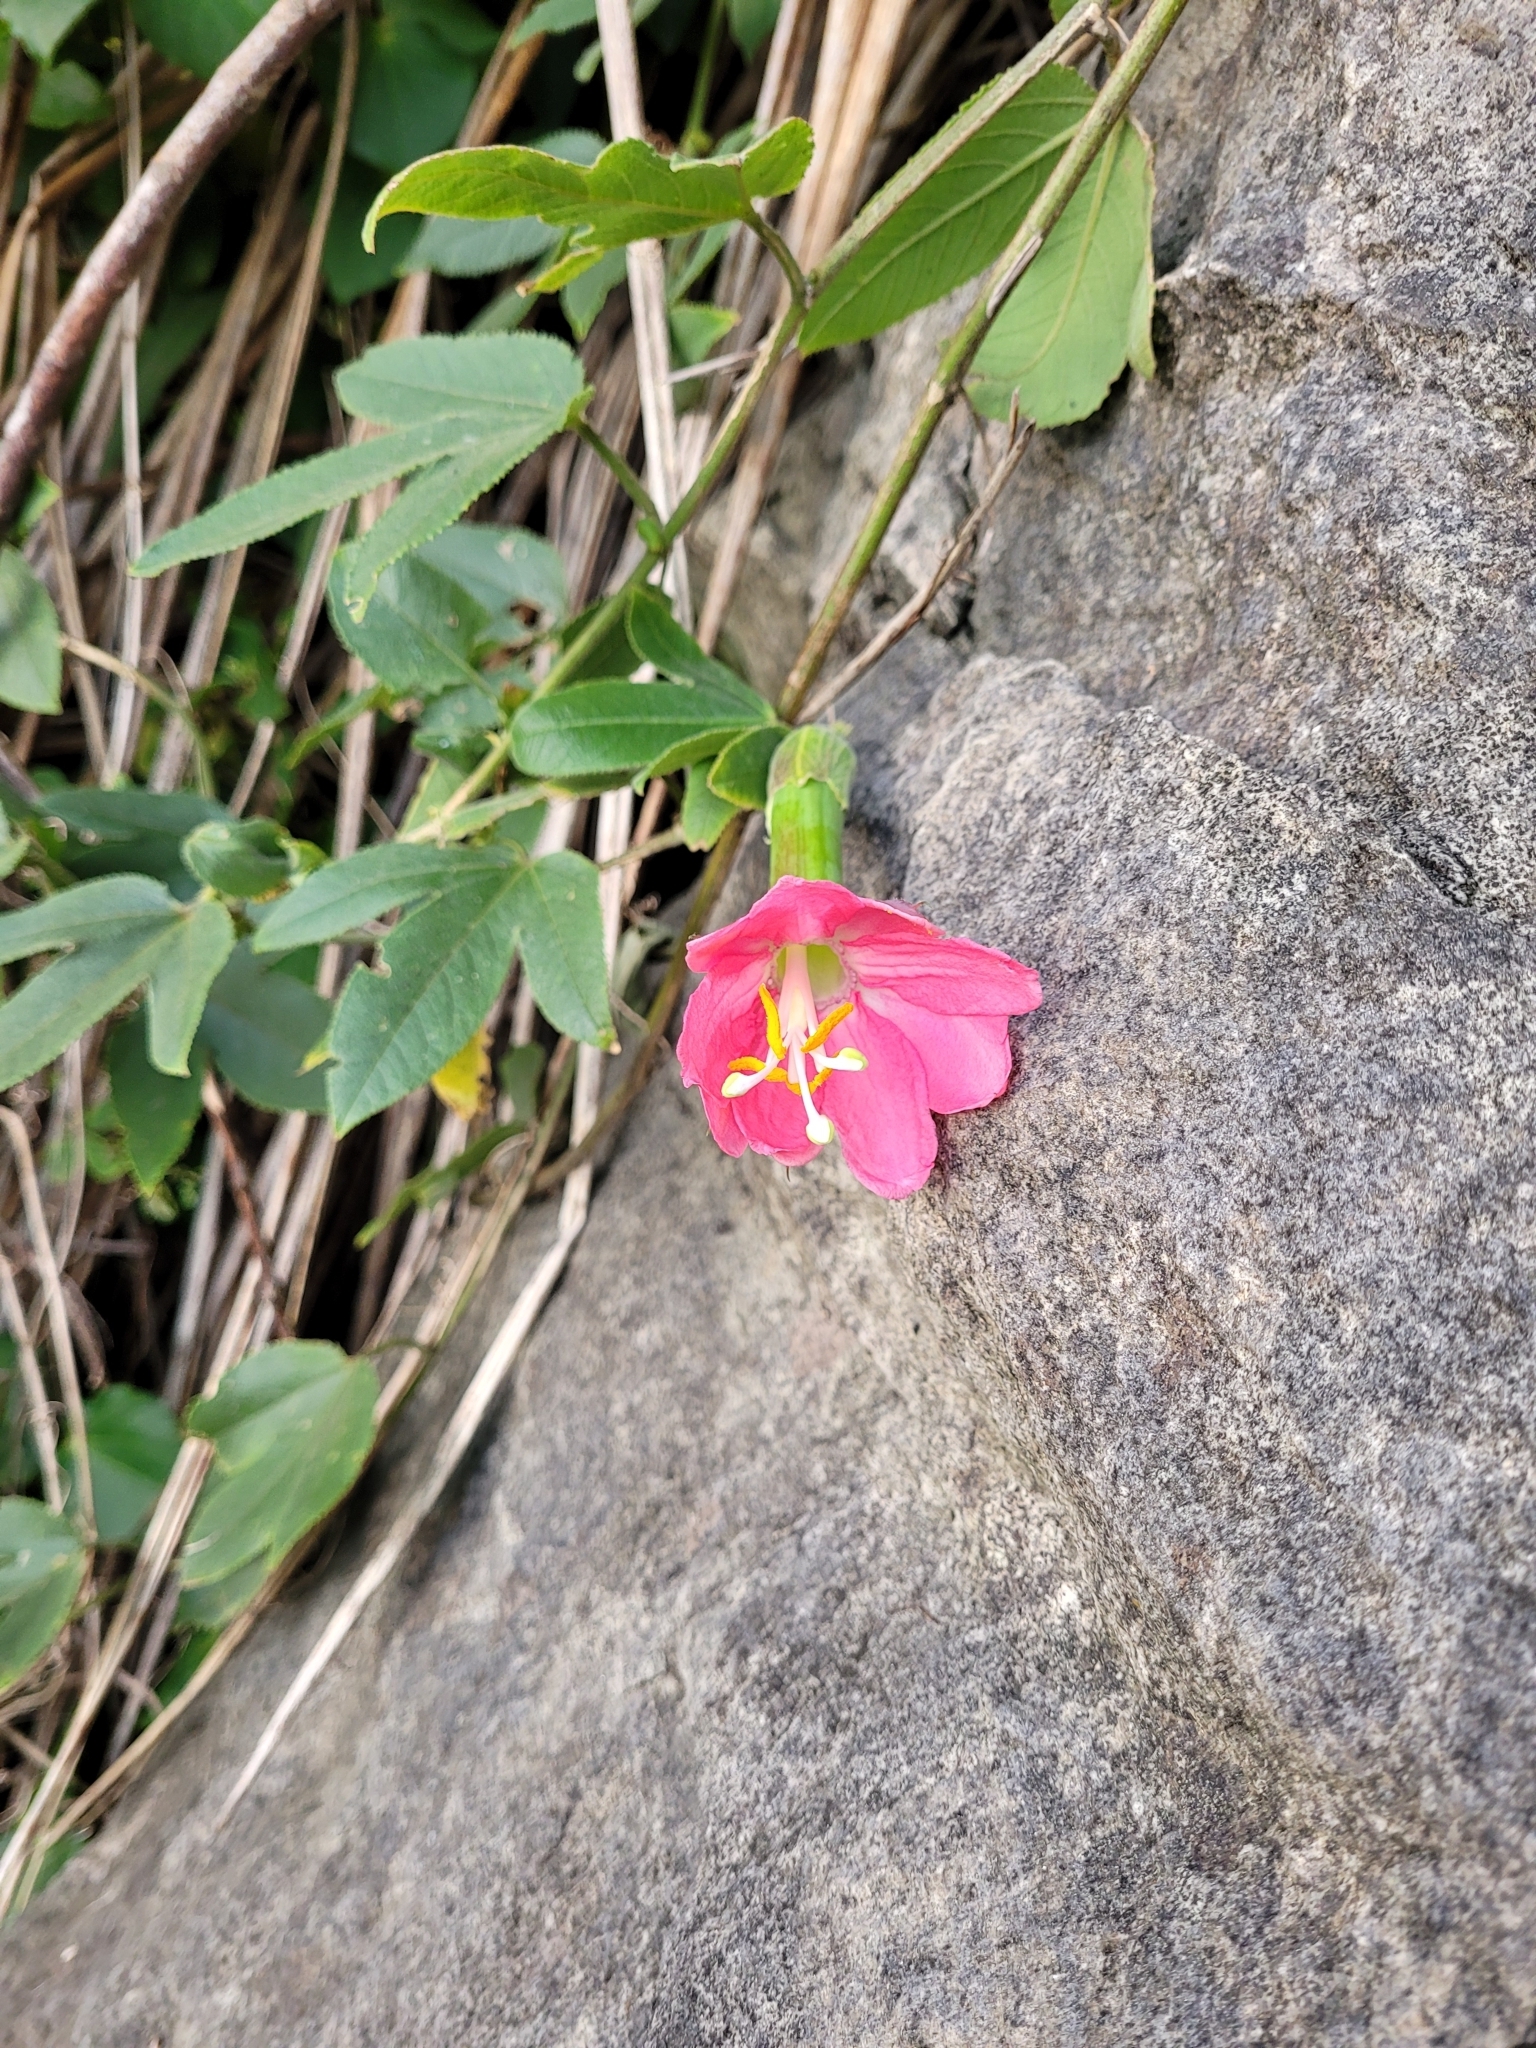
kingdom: Plantae
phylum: Tracheophyta
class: Magnoliopsida
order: Malpighiales
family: Passifloraceae
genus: Passiflora
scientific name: Passiflora tripartita
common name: Banana poka
